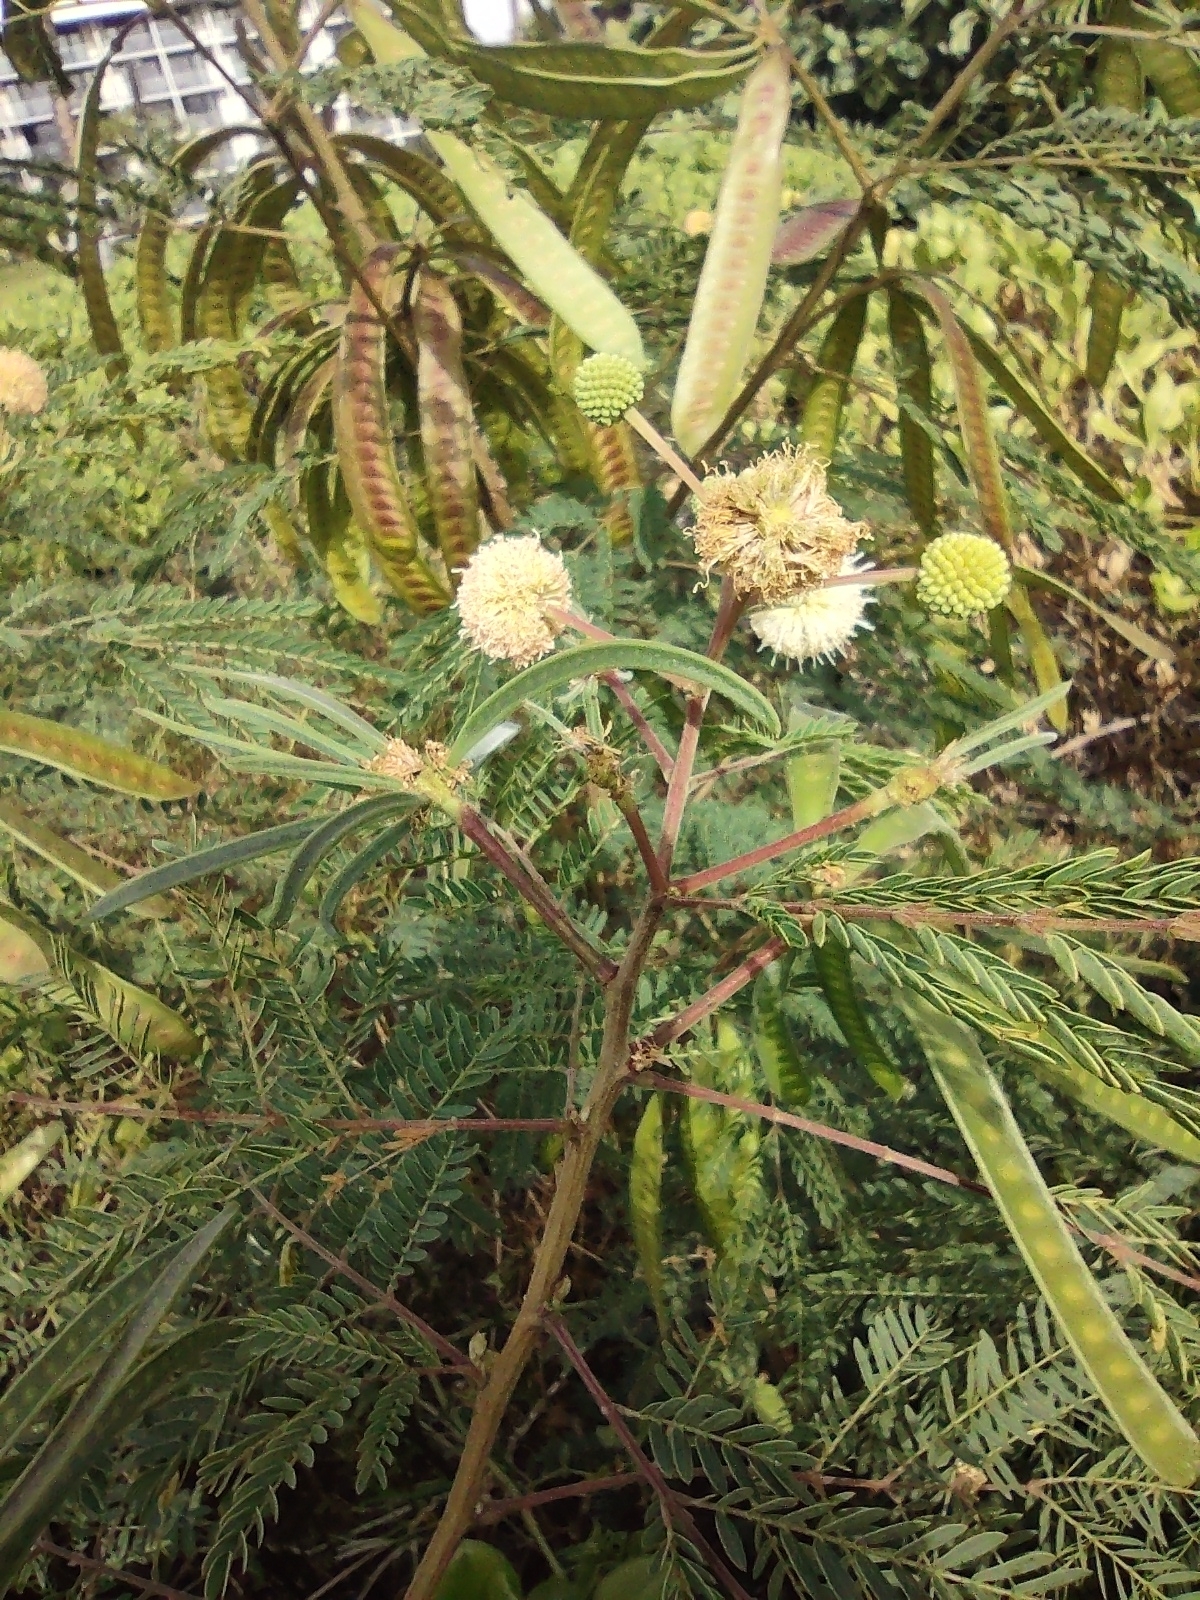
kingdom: Plantae
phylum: Tracheophyta
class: Magnoliopsida
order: Fabales
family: Fabaceae
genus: Leucaena
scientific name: Leucaena leucocephala
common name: White leadtree
